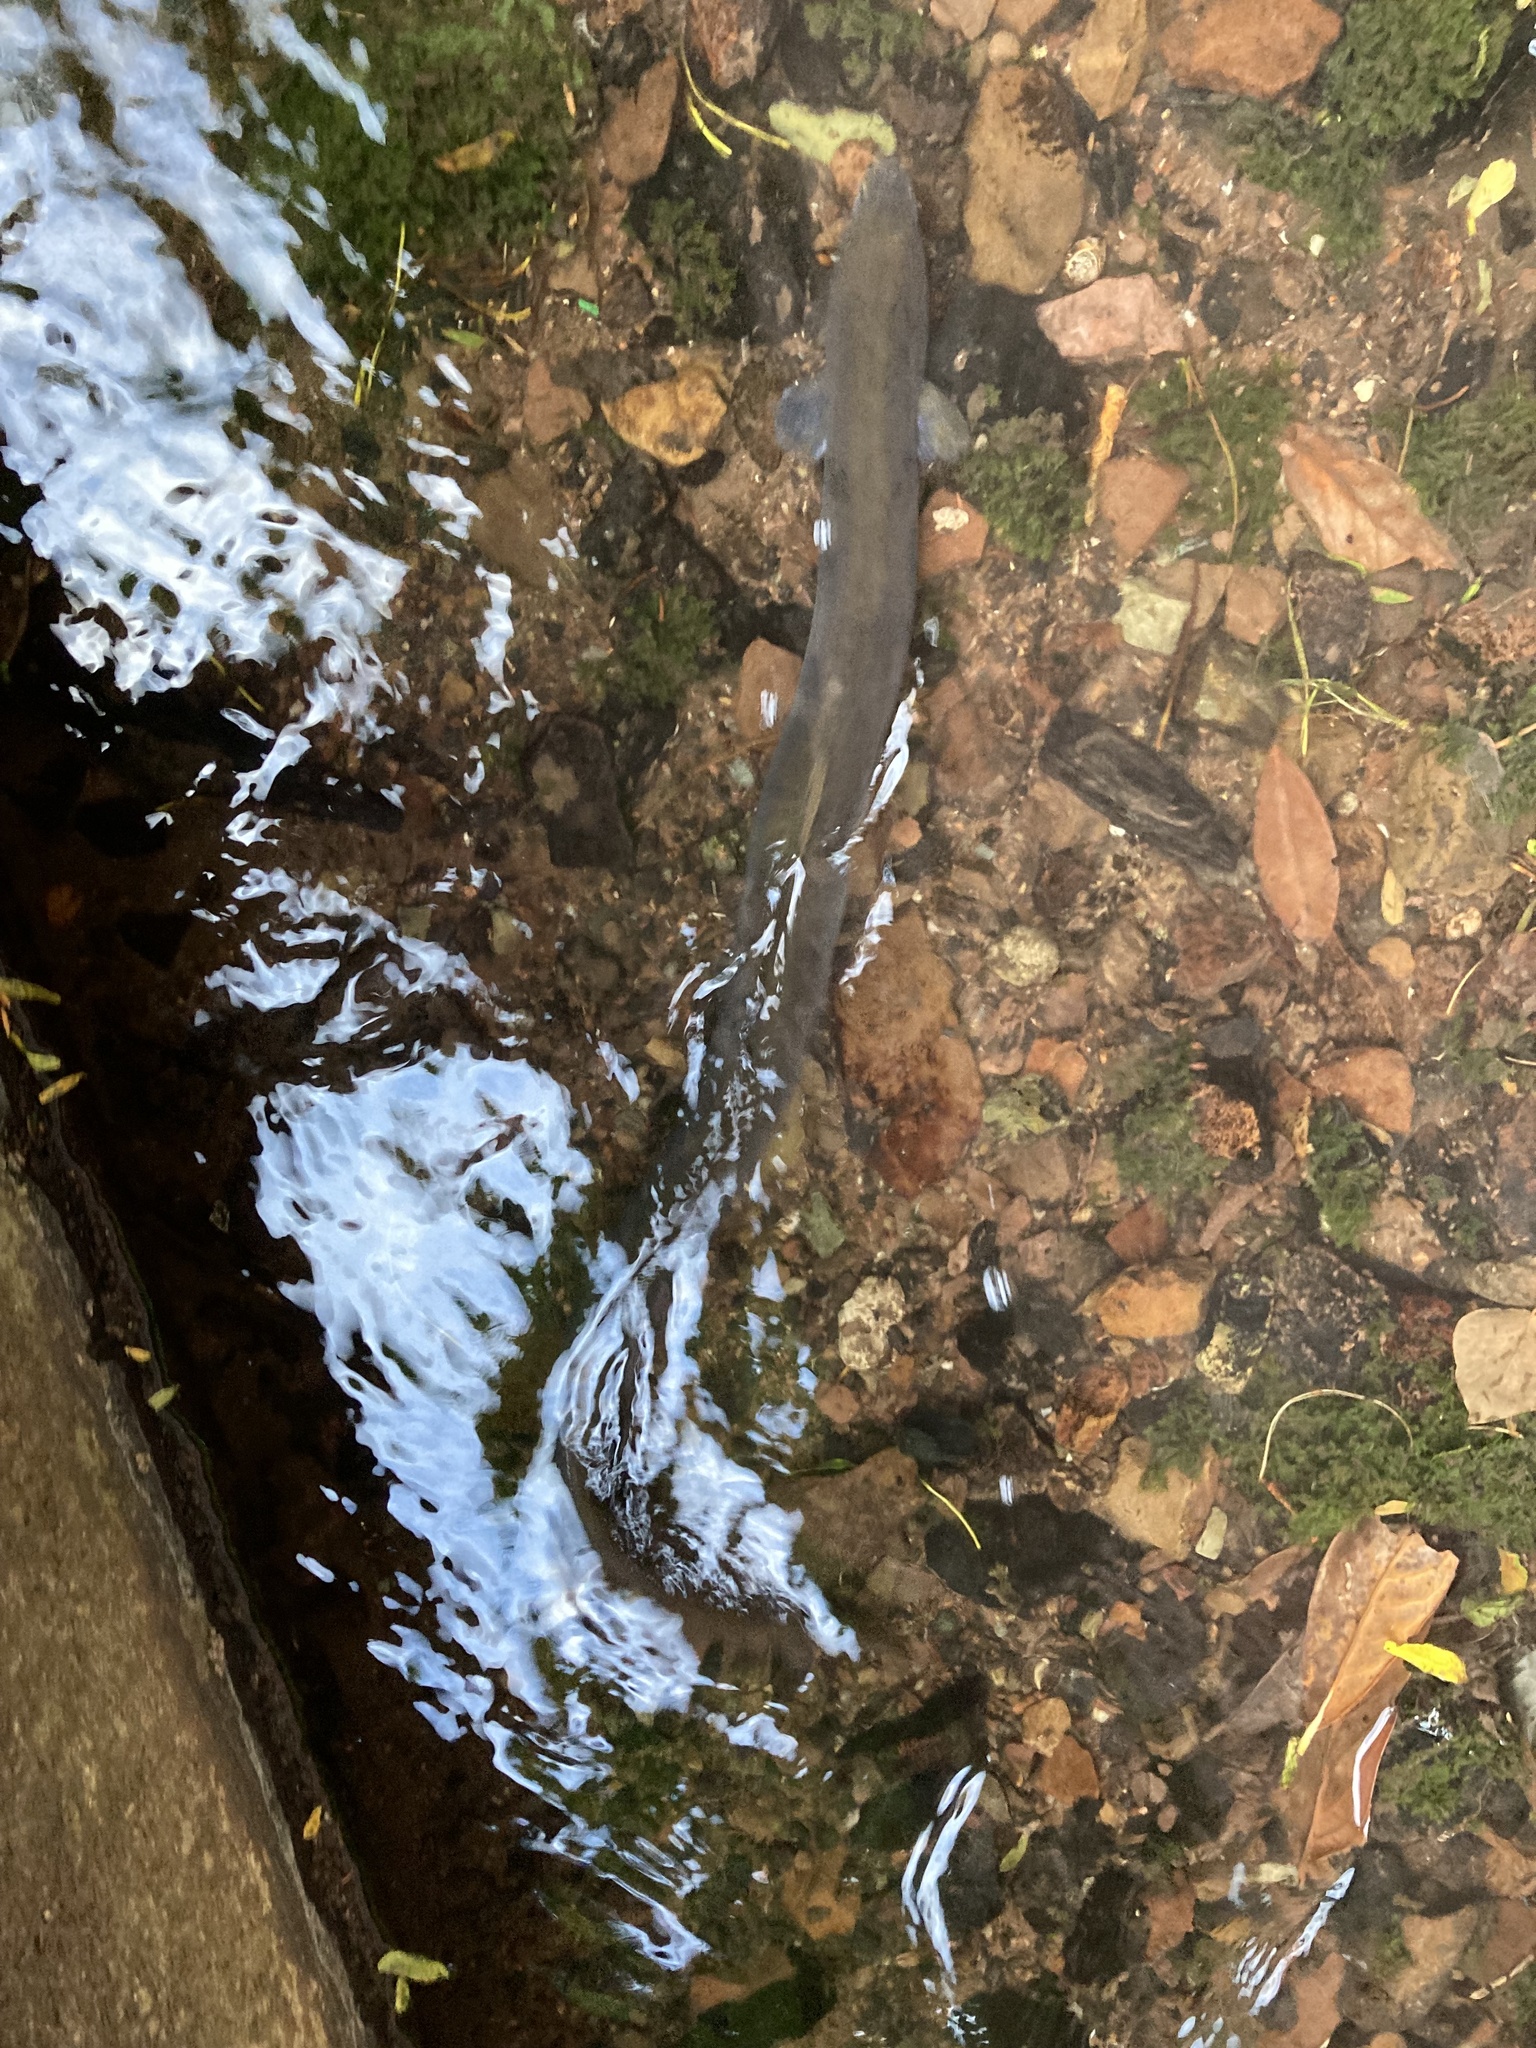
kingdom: Animalia
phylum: Chordata
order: Anguilliformes
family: Anguillidae
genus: Anguilla
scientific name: Anguilla anguilla
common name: European eel
